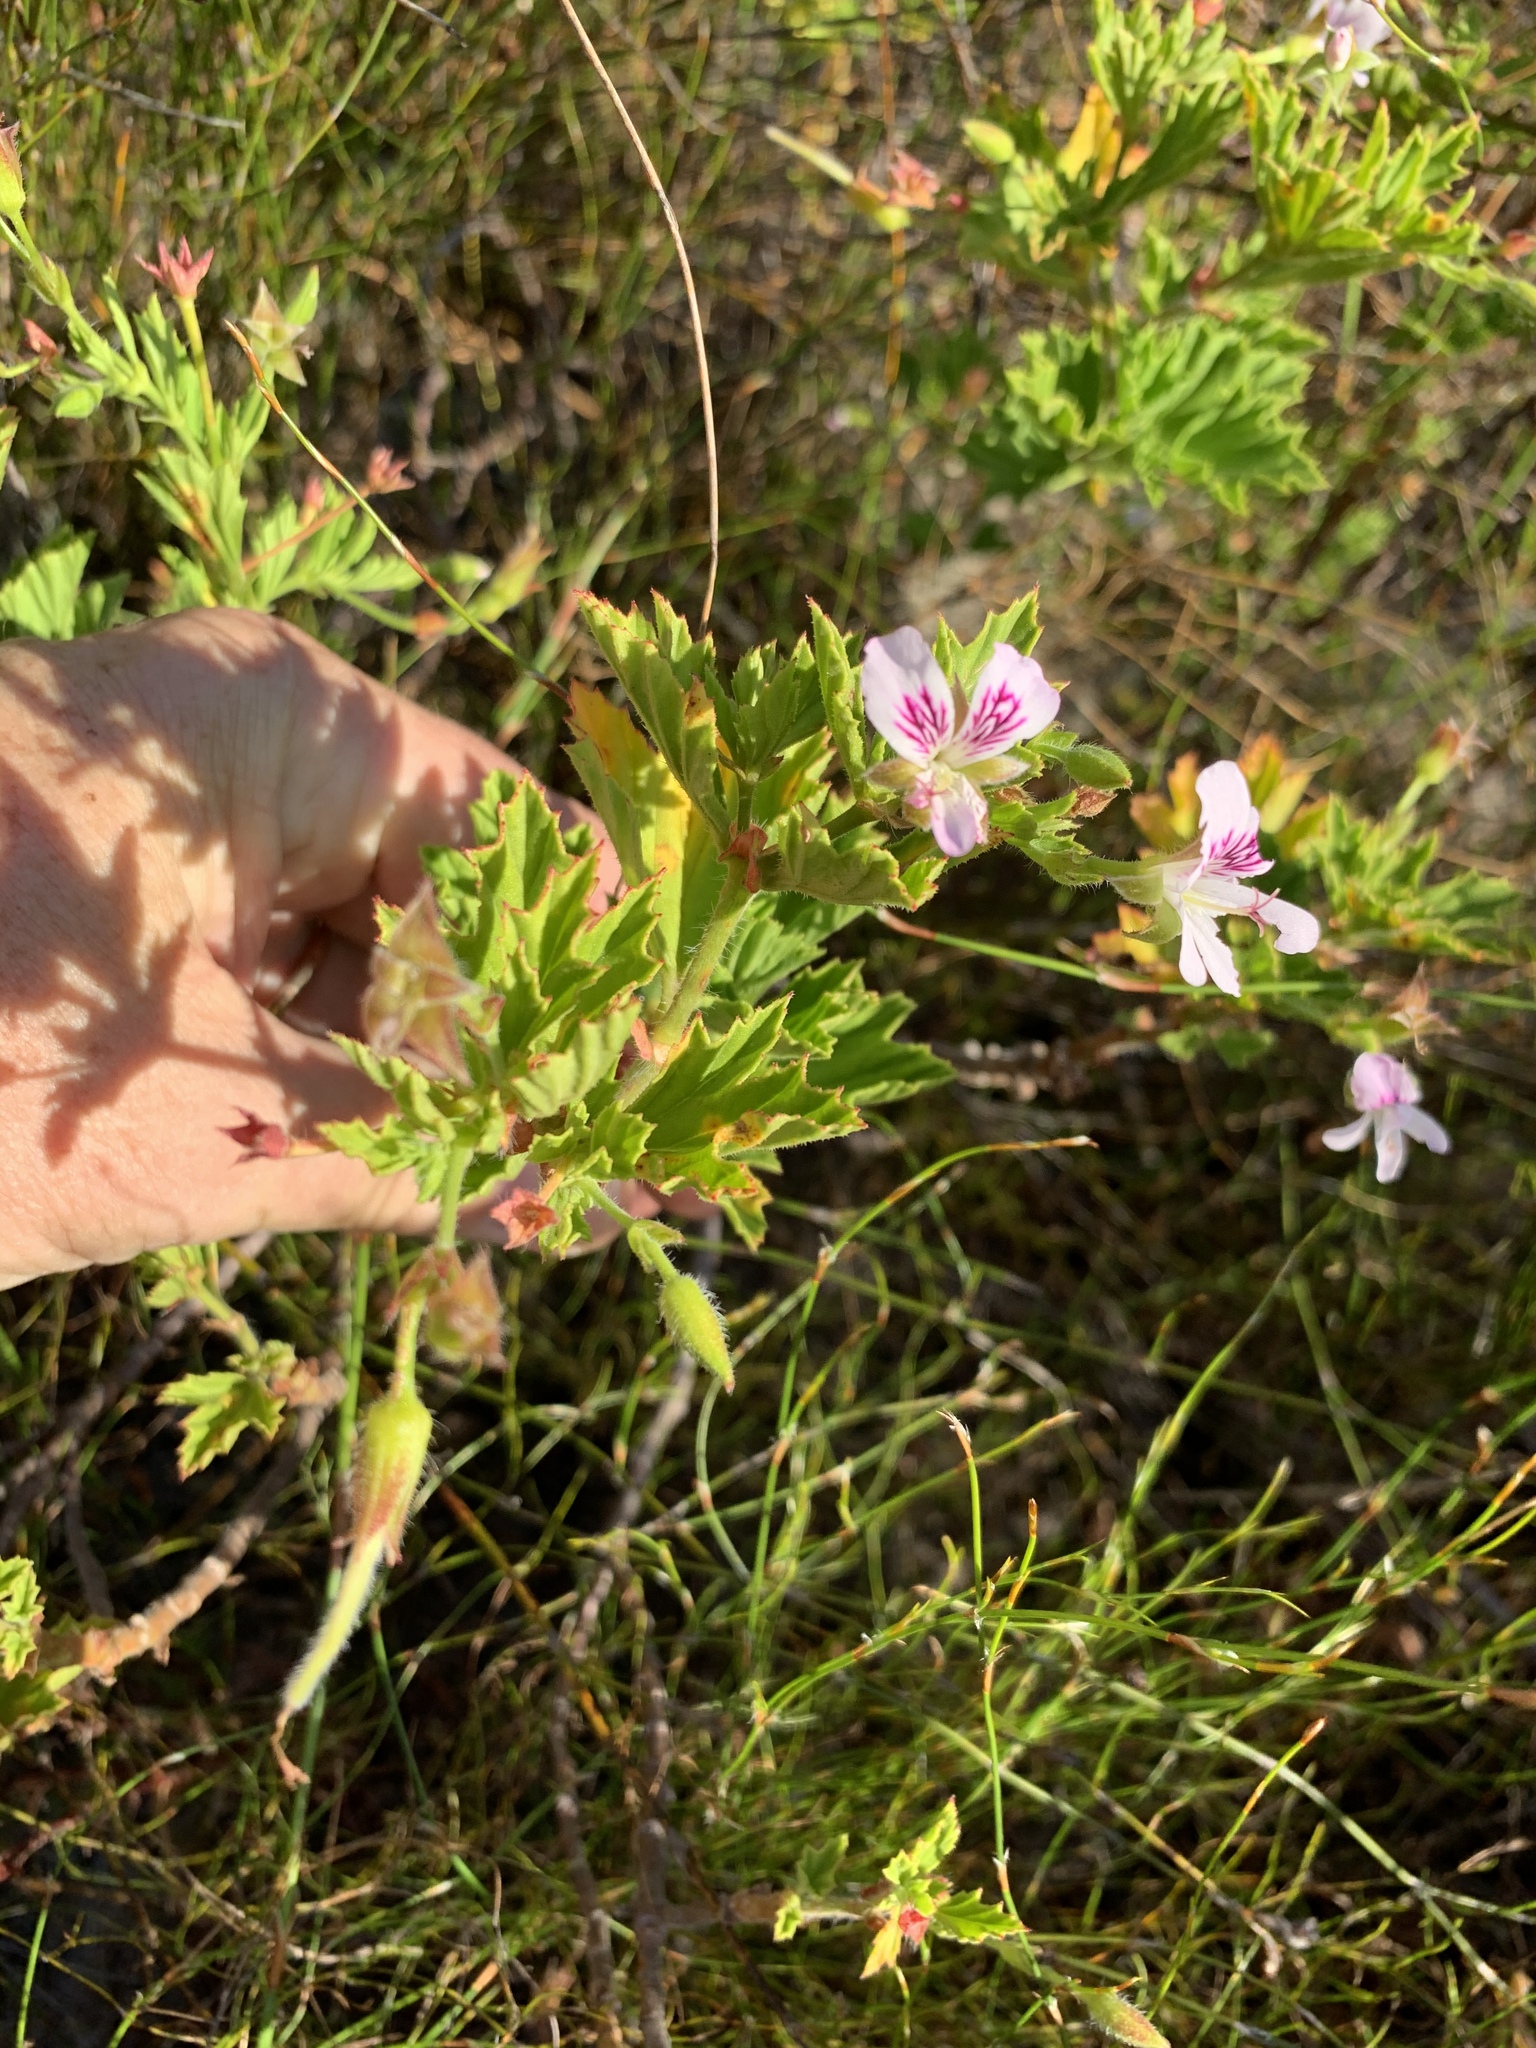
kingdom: Plantae
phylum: Tracheophyta
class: Magnoliopsida
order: Geraniales
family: Geraniaceae
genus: Pelargonium
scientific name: Pelargonium scabrum
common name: Apricot geranium
